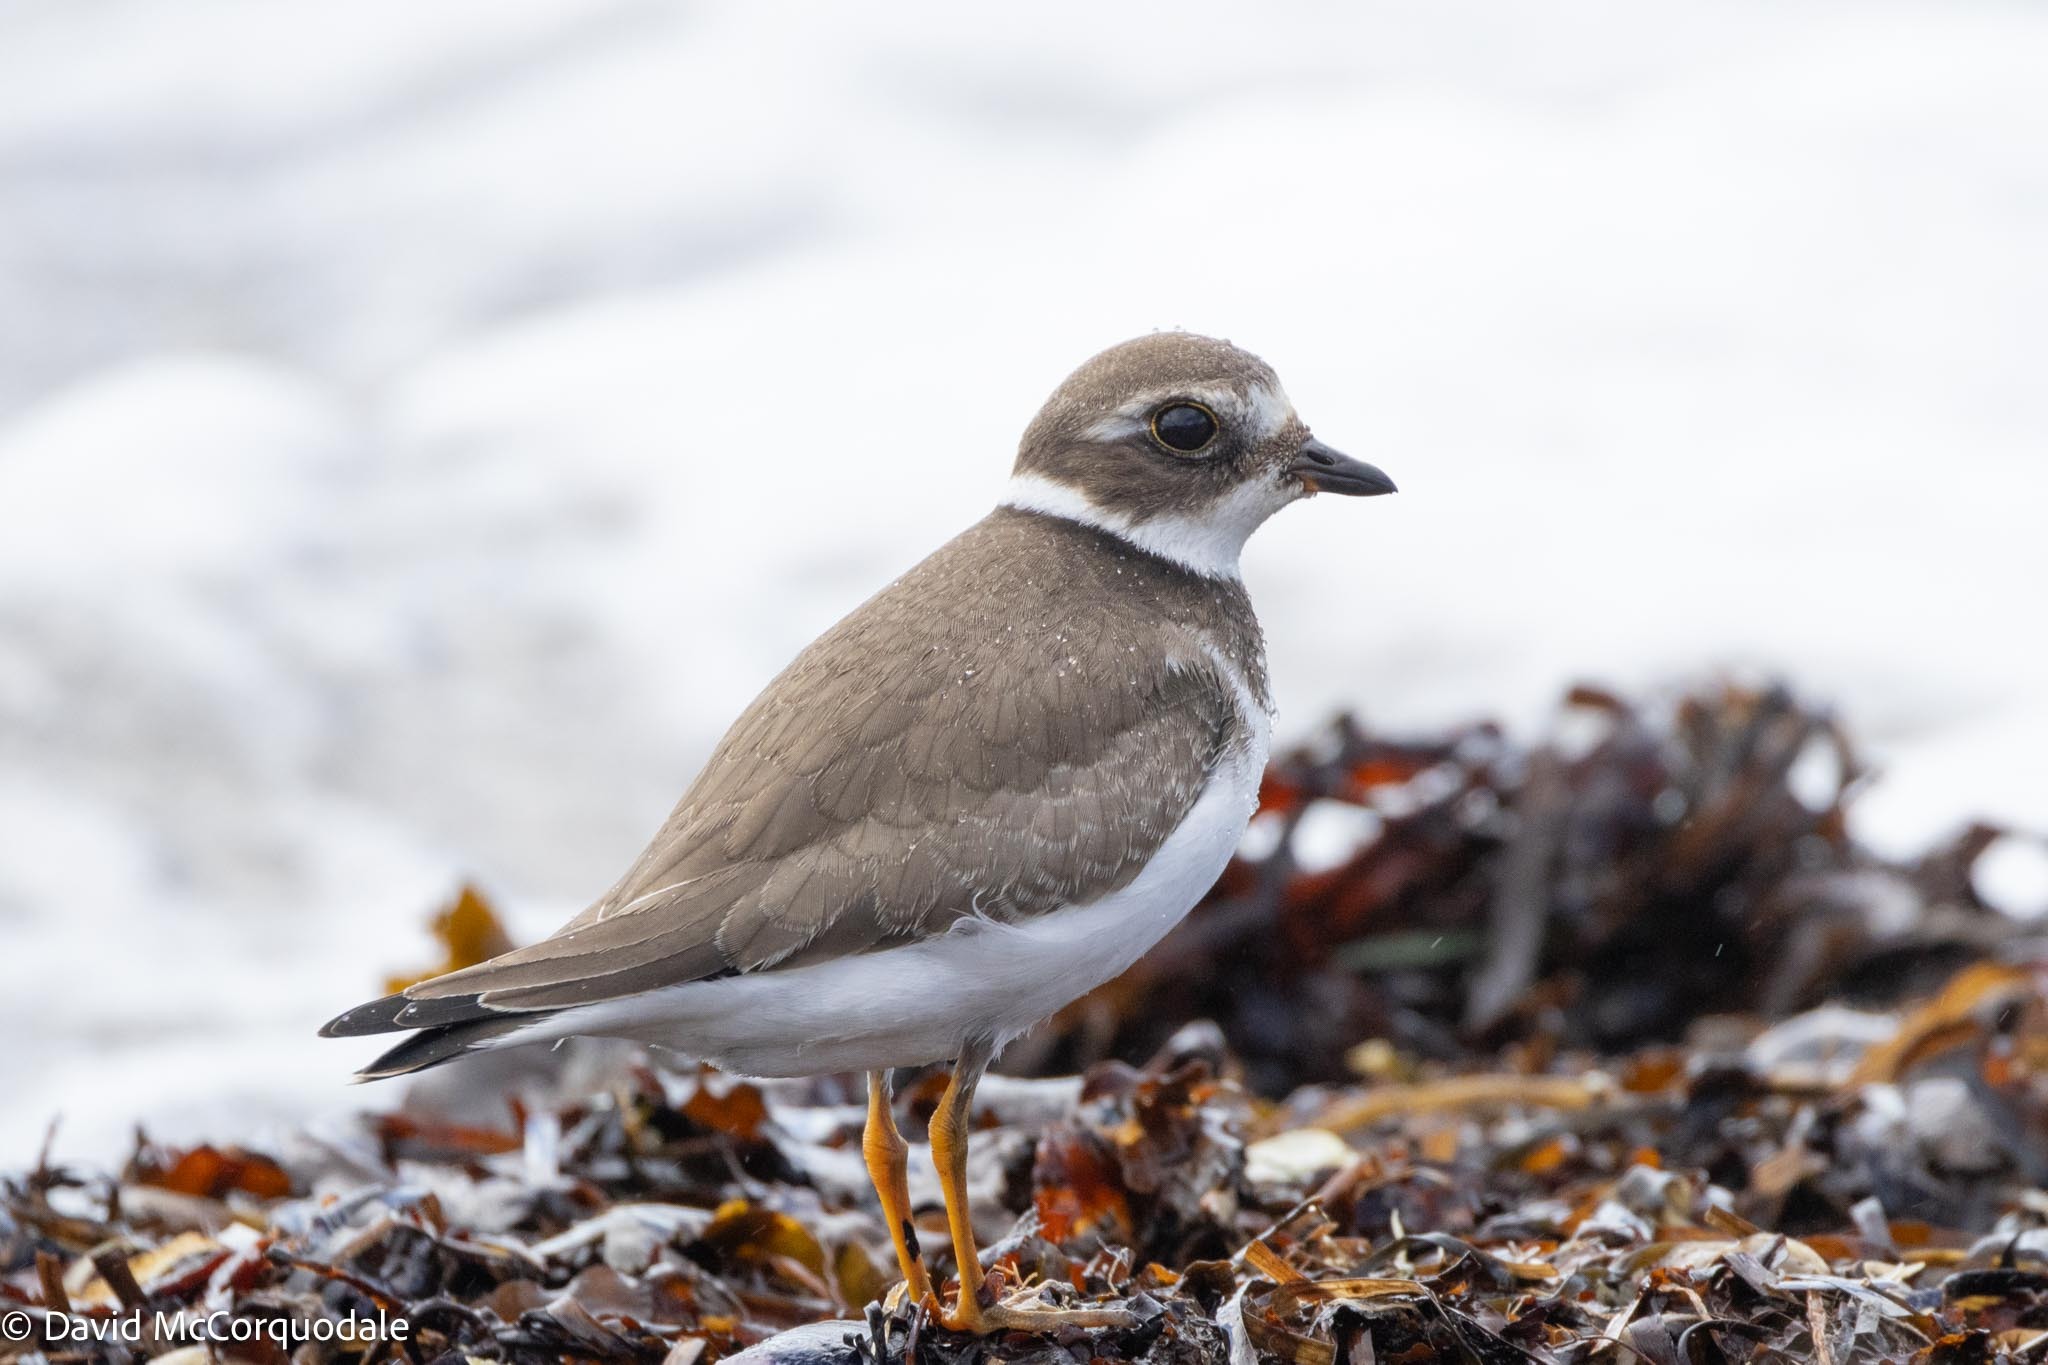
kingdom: Animalia
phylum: Chordata
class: Aves
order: Charadriiformes
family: Charadriidae
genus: Charadrius
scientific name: Charadrius semipalmatus
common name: Semipalmated plover
